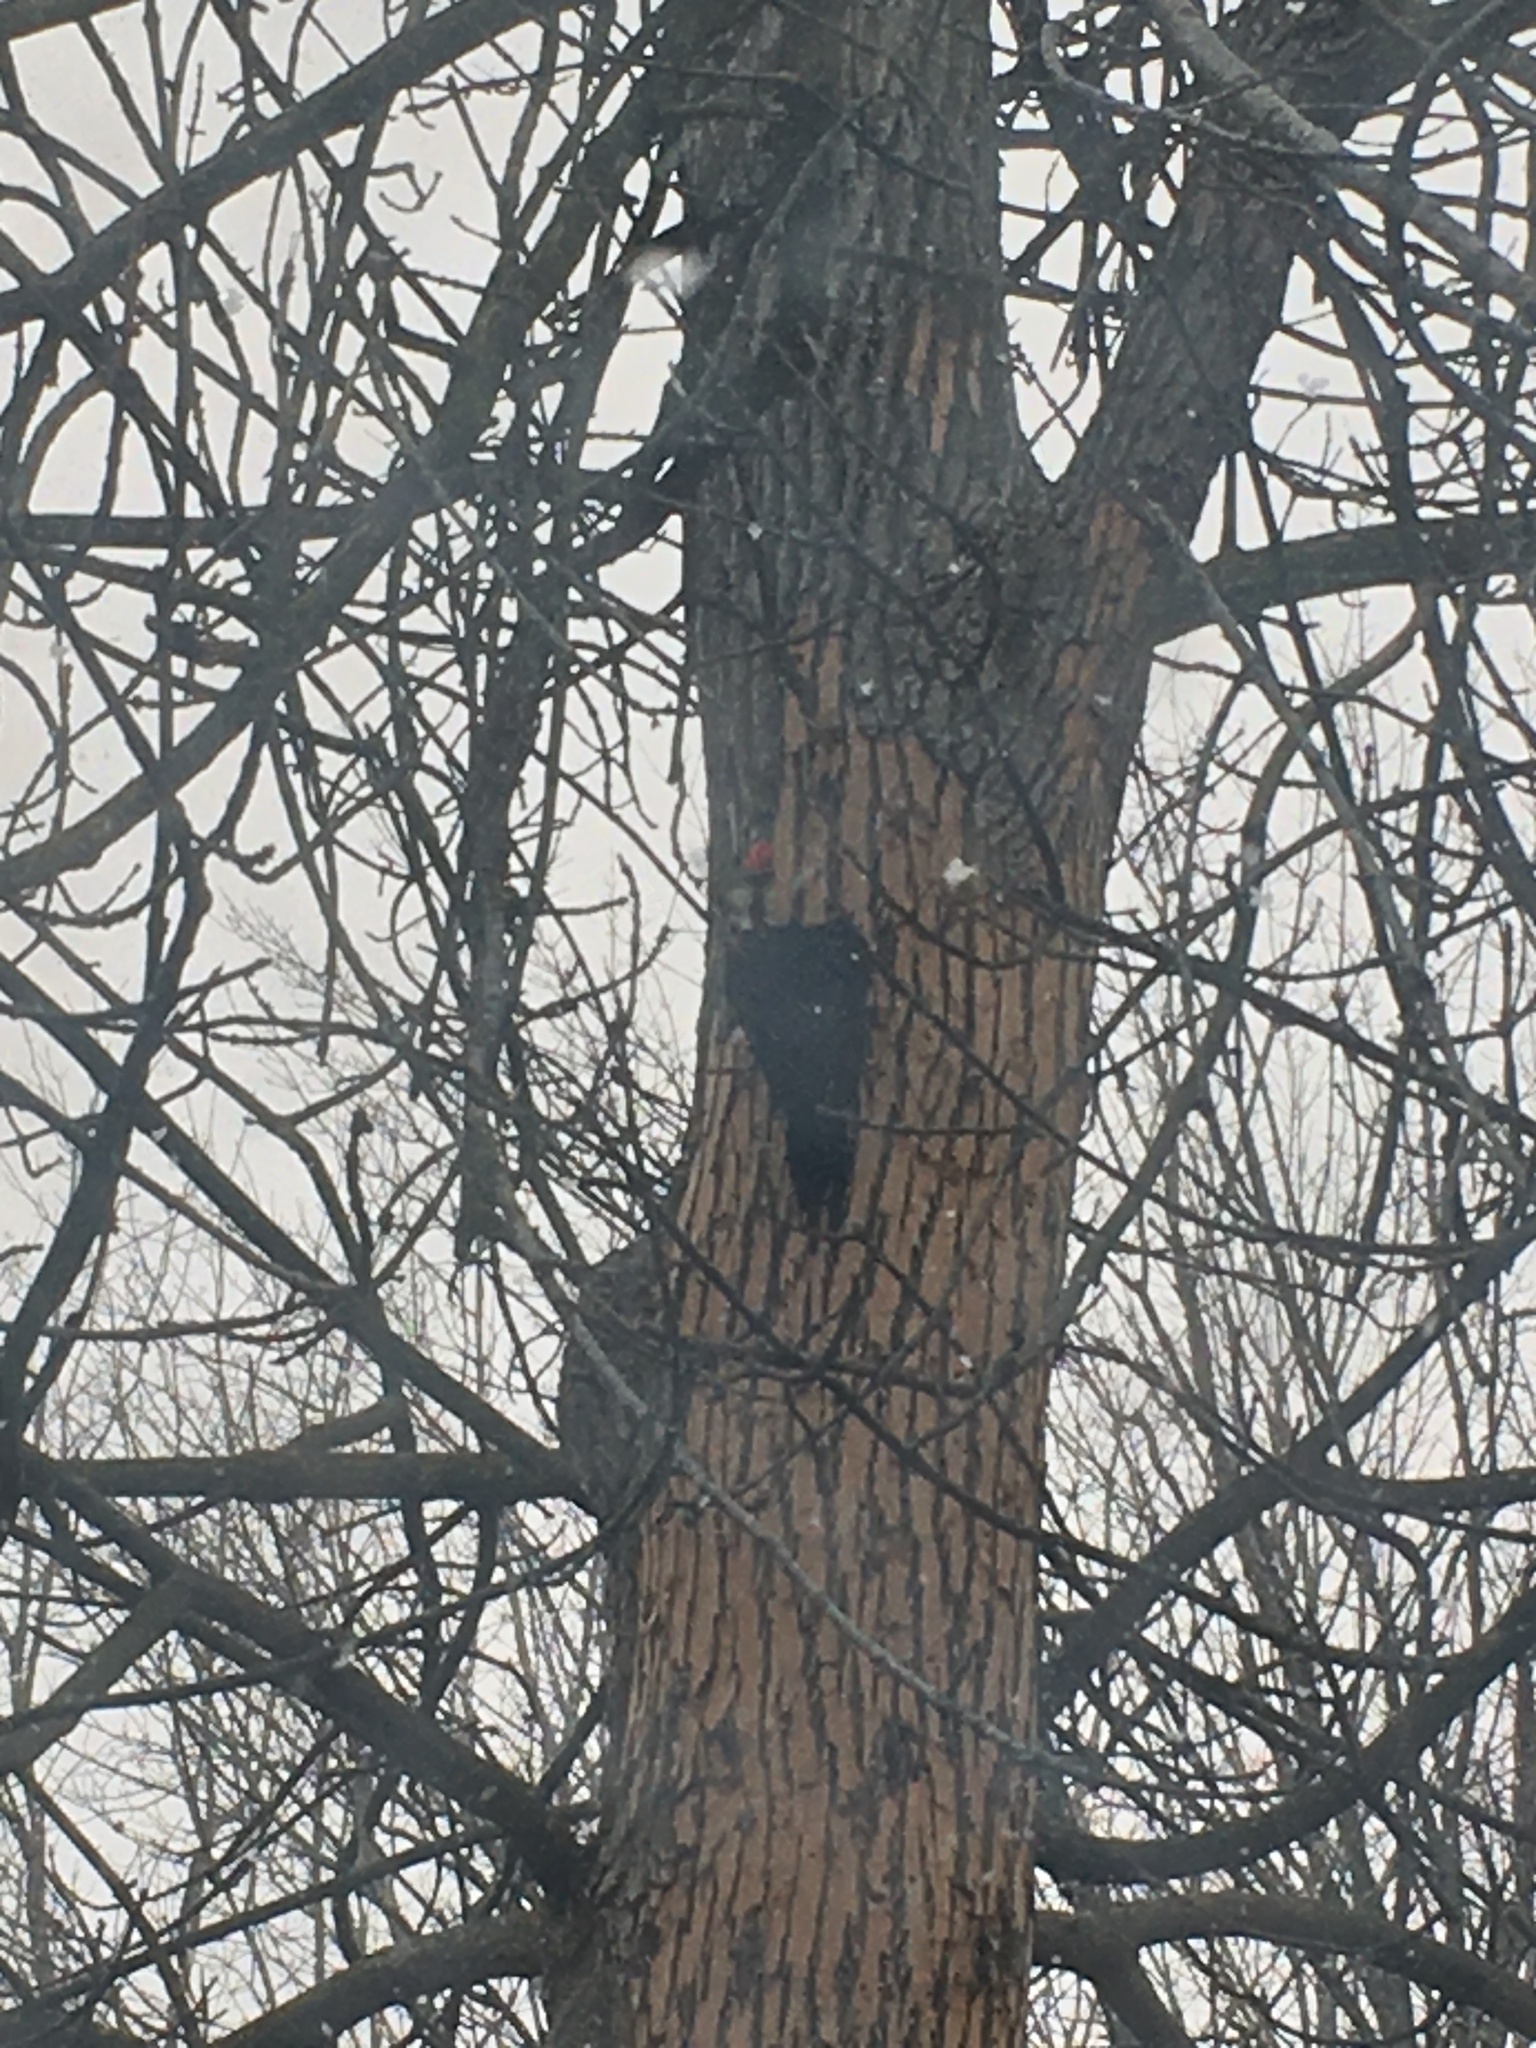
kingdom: Animalia
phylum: Chordata
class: Aves
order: Piciformes
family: Picidae
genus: Dryocopus
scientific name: Dryocopus pileatus
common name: Pileated woodpecker
